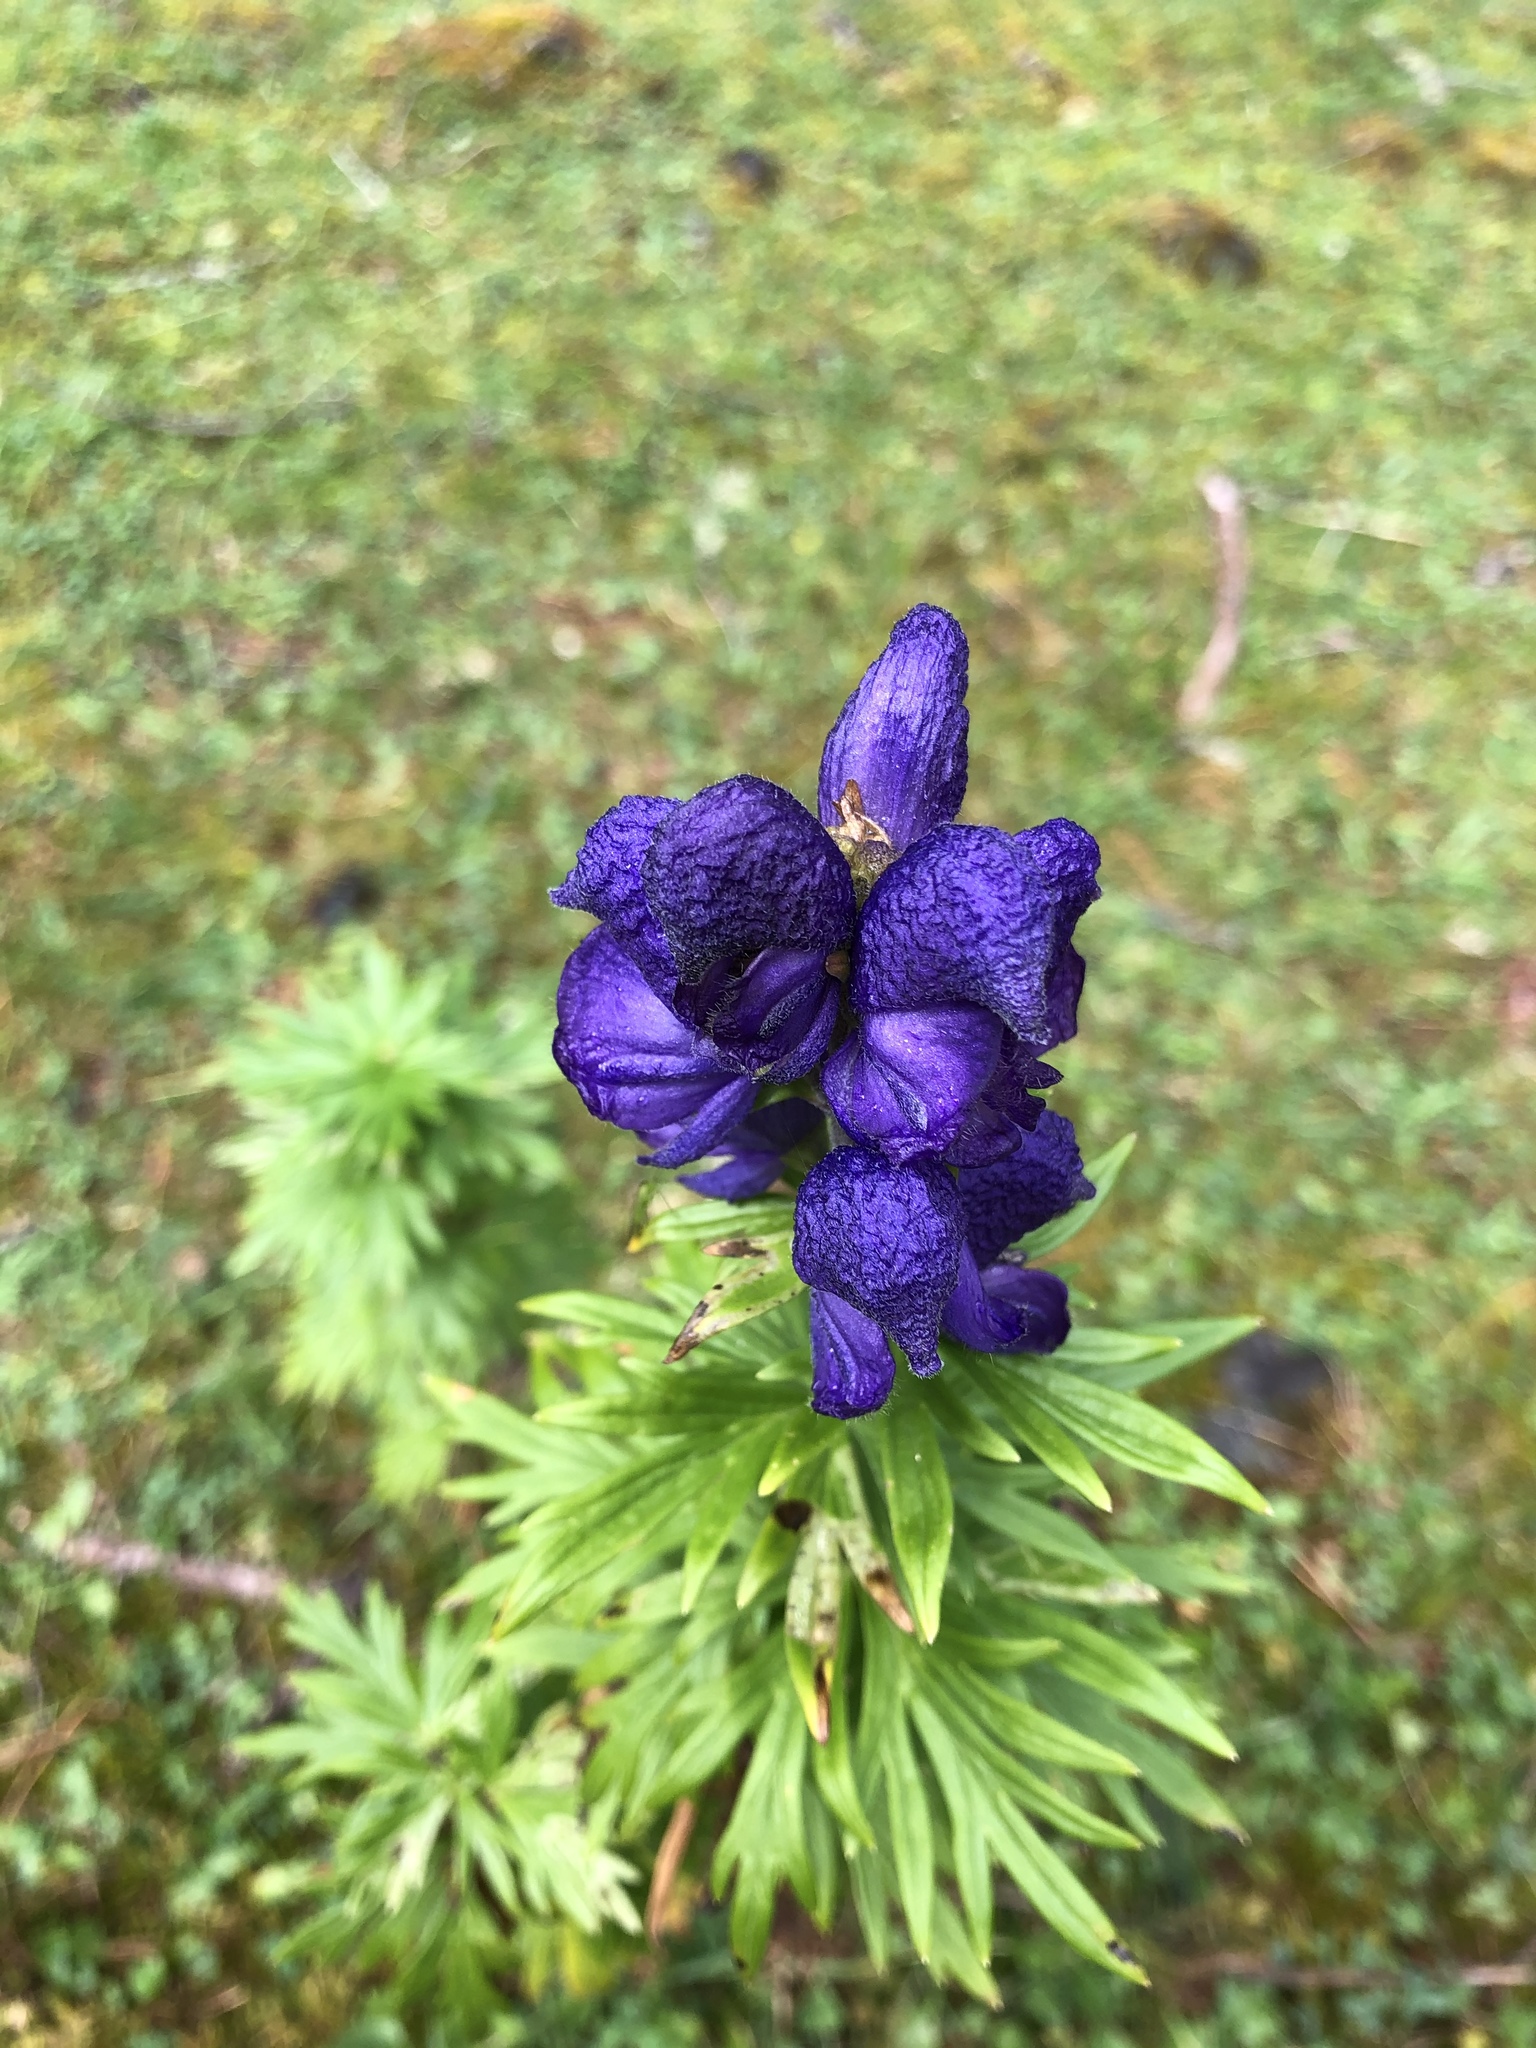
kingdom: Plantae
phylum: Tracheophyta
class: Magnoliopsida
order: Ranunculales
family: Ranunculaceae
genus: Aconitum
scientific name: Aconitum napellus
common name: Garden monkshood
